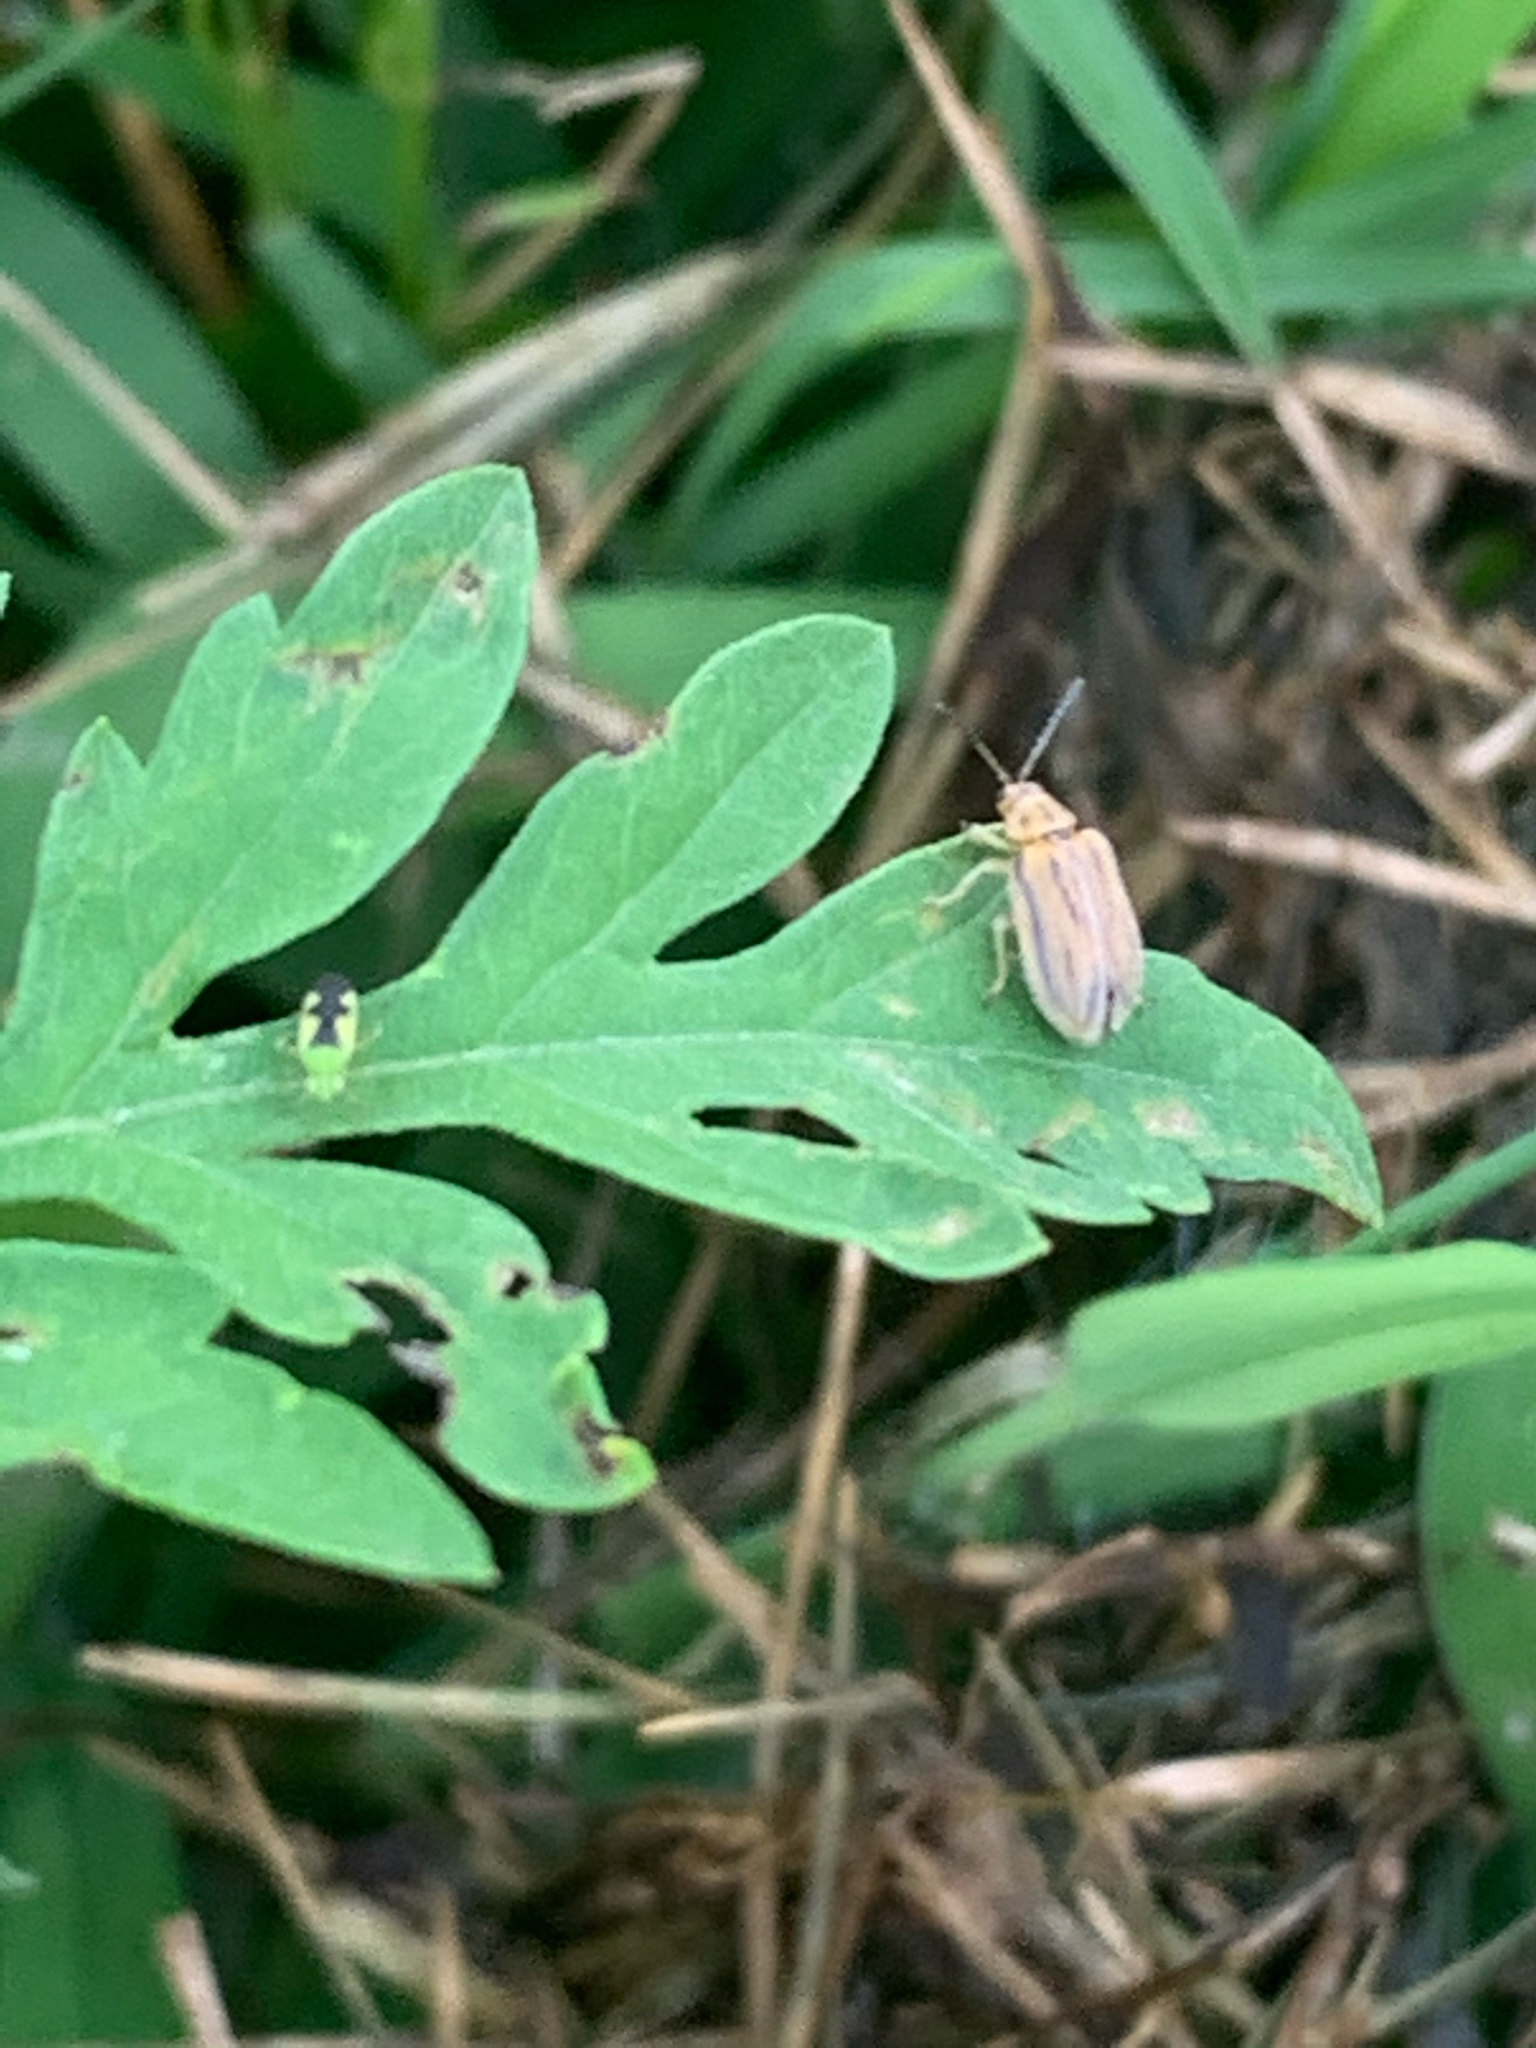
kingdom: Animalia
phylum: Arthropoda
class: Insecta
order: Coleoptera
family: Chrysomelidae
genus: Ophraella
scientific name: Ophraella communa
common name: Ragweed leaf beetle
